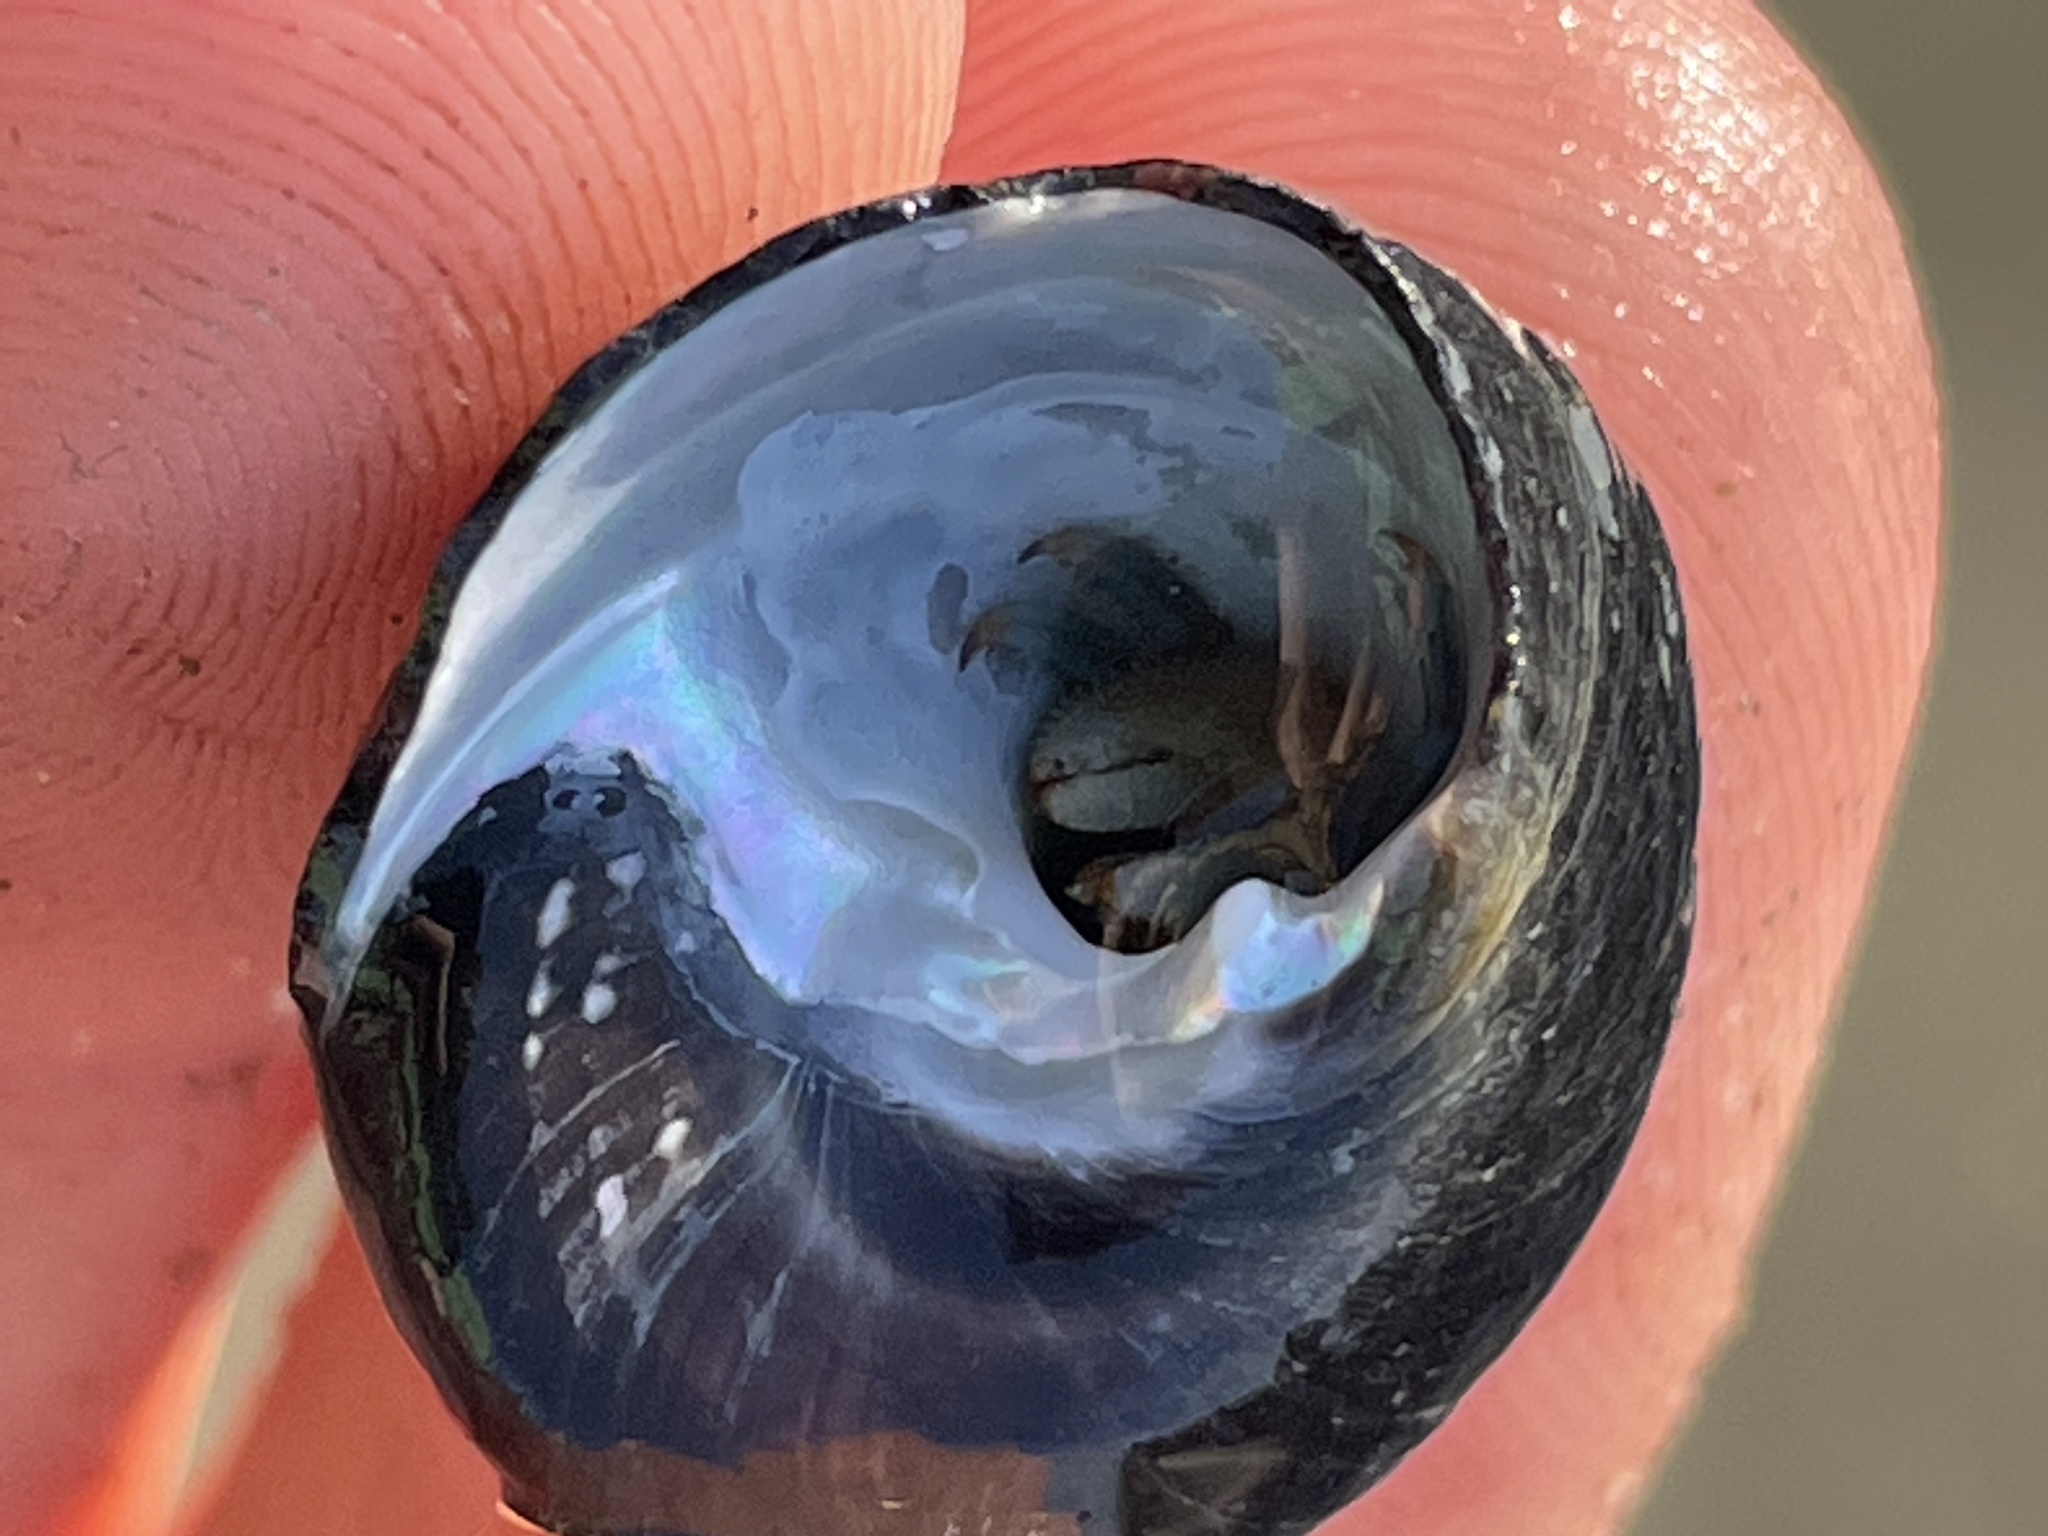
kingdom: Animalia
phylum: Arthropoda
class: Malacostraca
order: Decapoda
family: Paguridae
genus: Pagurus
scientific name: Pagurus samuelis
